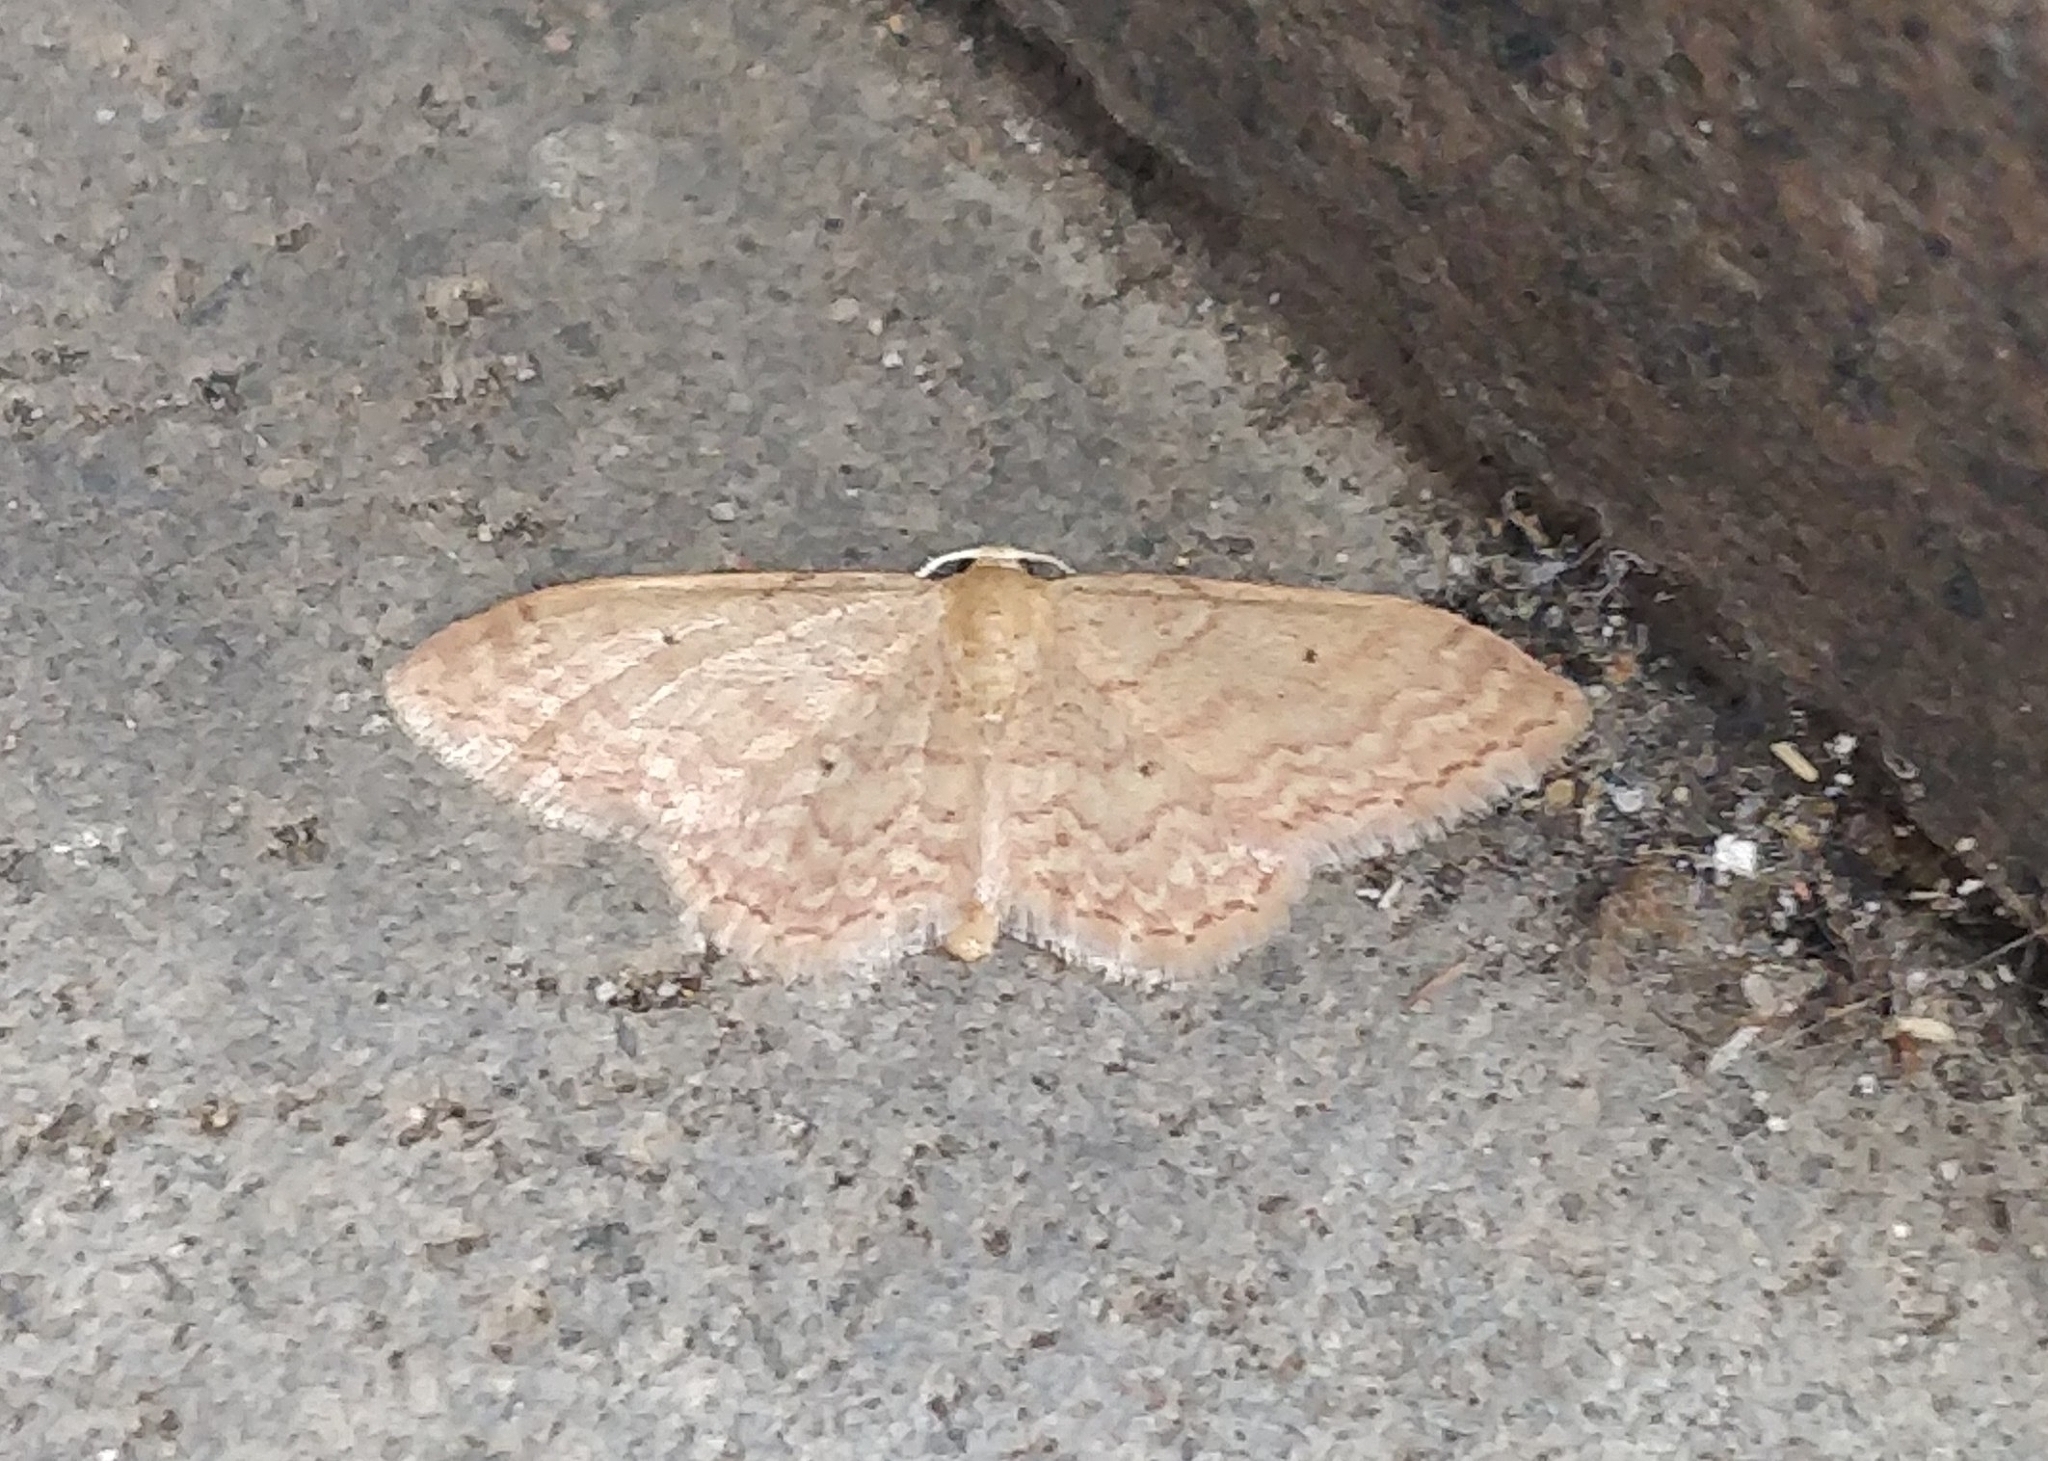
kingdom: Animalia
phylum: Arthropoda
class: Insecta
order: Lepidoptera
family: Geometridae
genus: Scopula
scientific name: Scopula minorata
